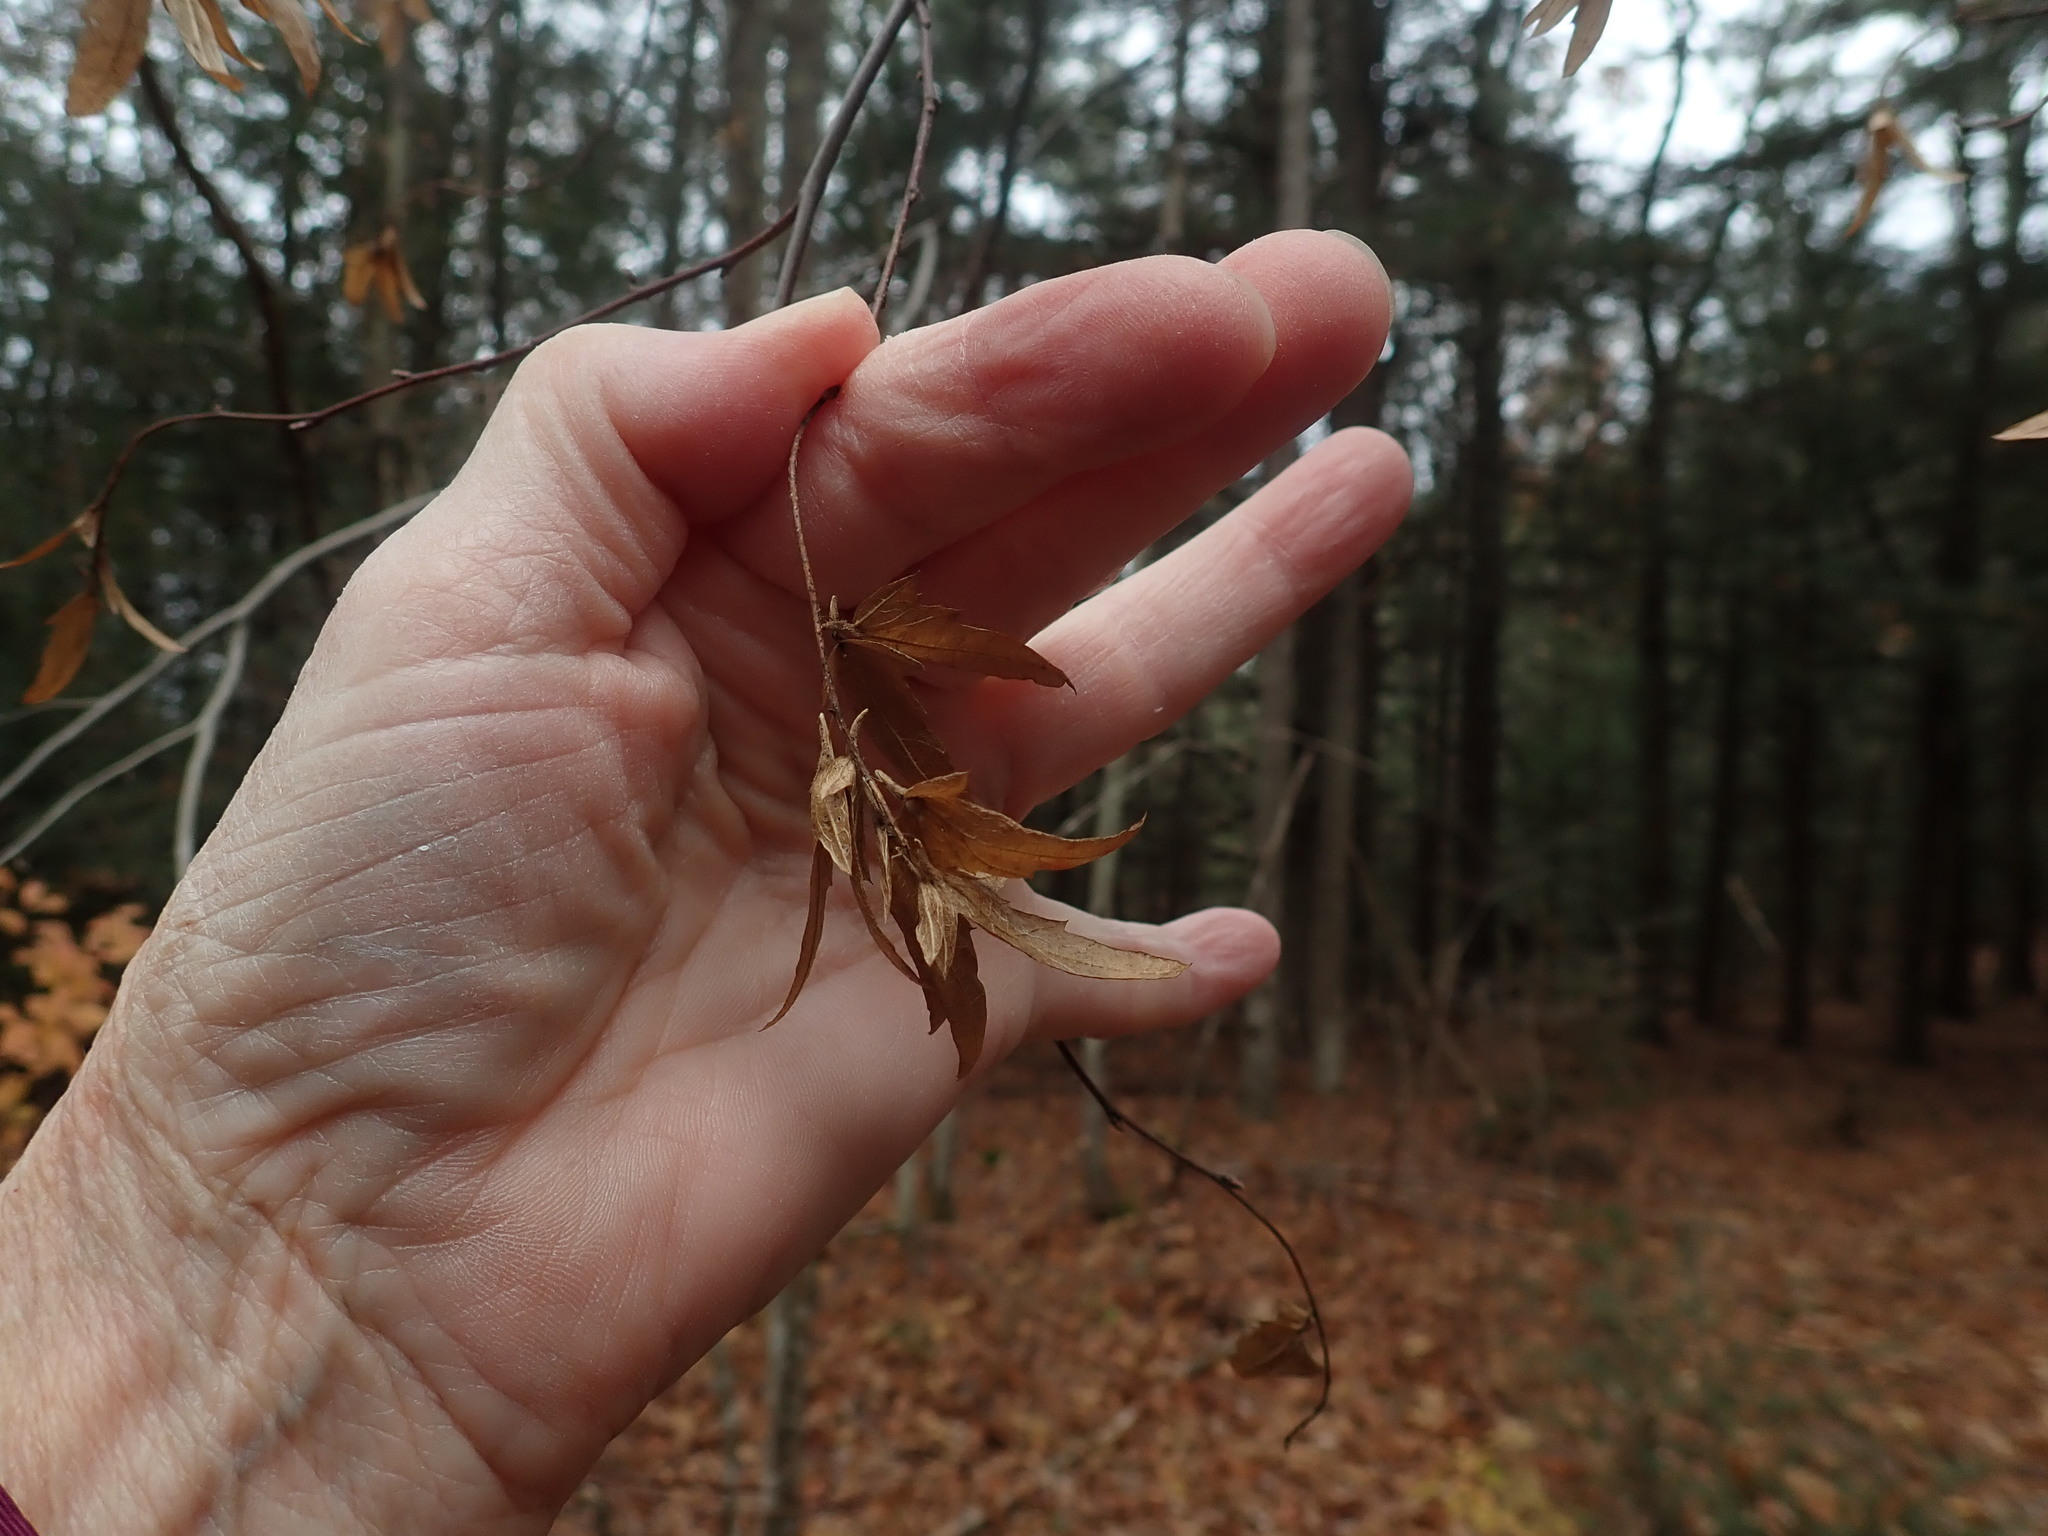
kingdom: Plantae
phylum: Tracheophyta
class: Magnoliopsida
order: Fagales
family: Betulaceae
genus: Carpinus
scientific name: Carpinus caroliniana
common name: American hornbeam
